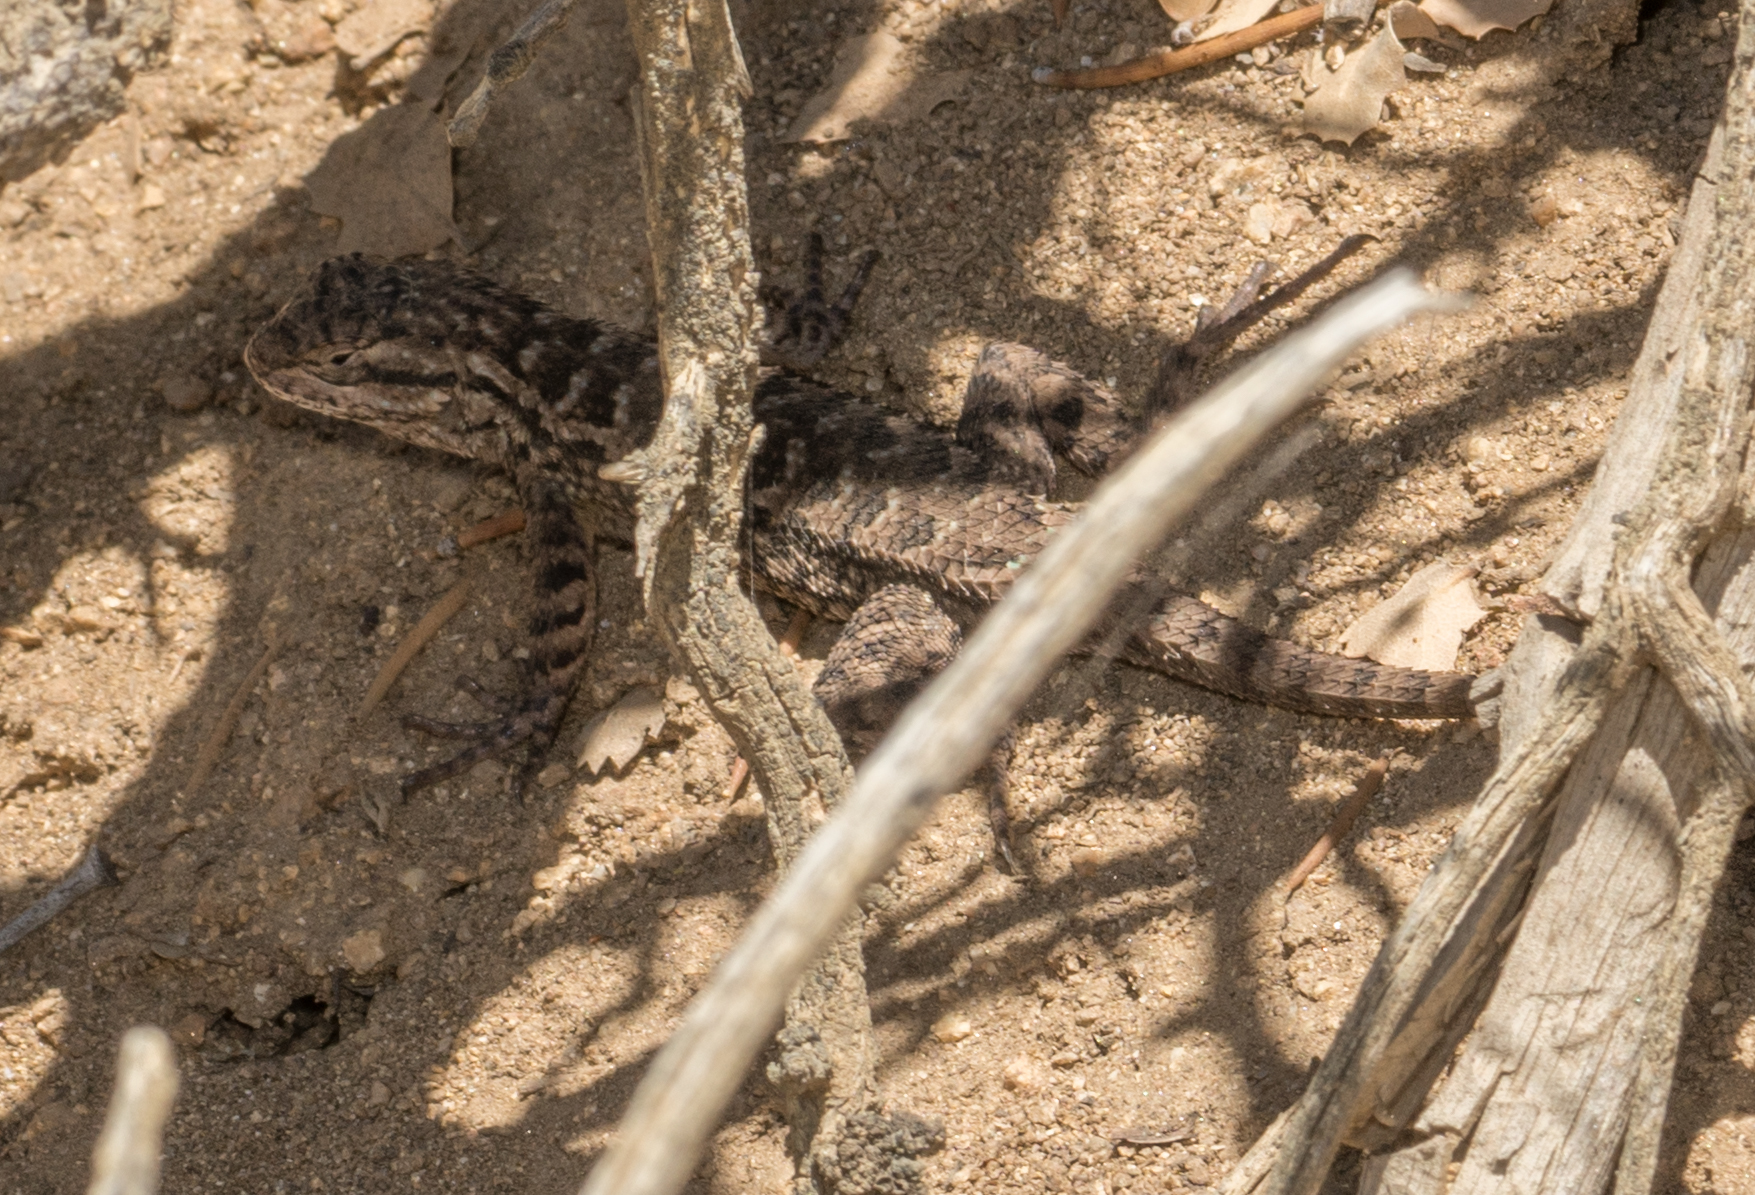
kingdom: Animalia
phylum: Chordata
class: Squamata
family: Phrynosomatidae
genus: Sceloporus
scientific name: Sceloporus occidentalis
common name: Western fence lizard
